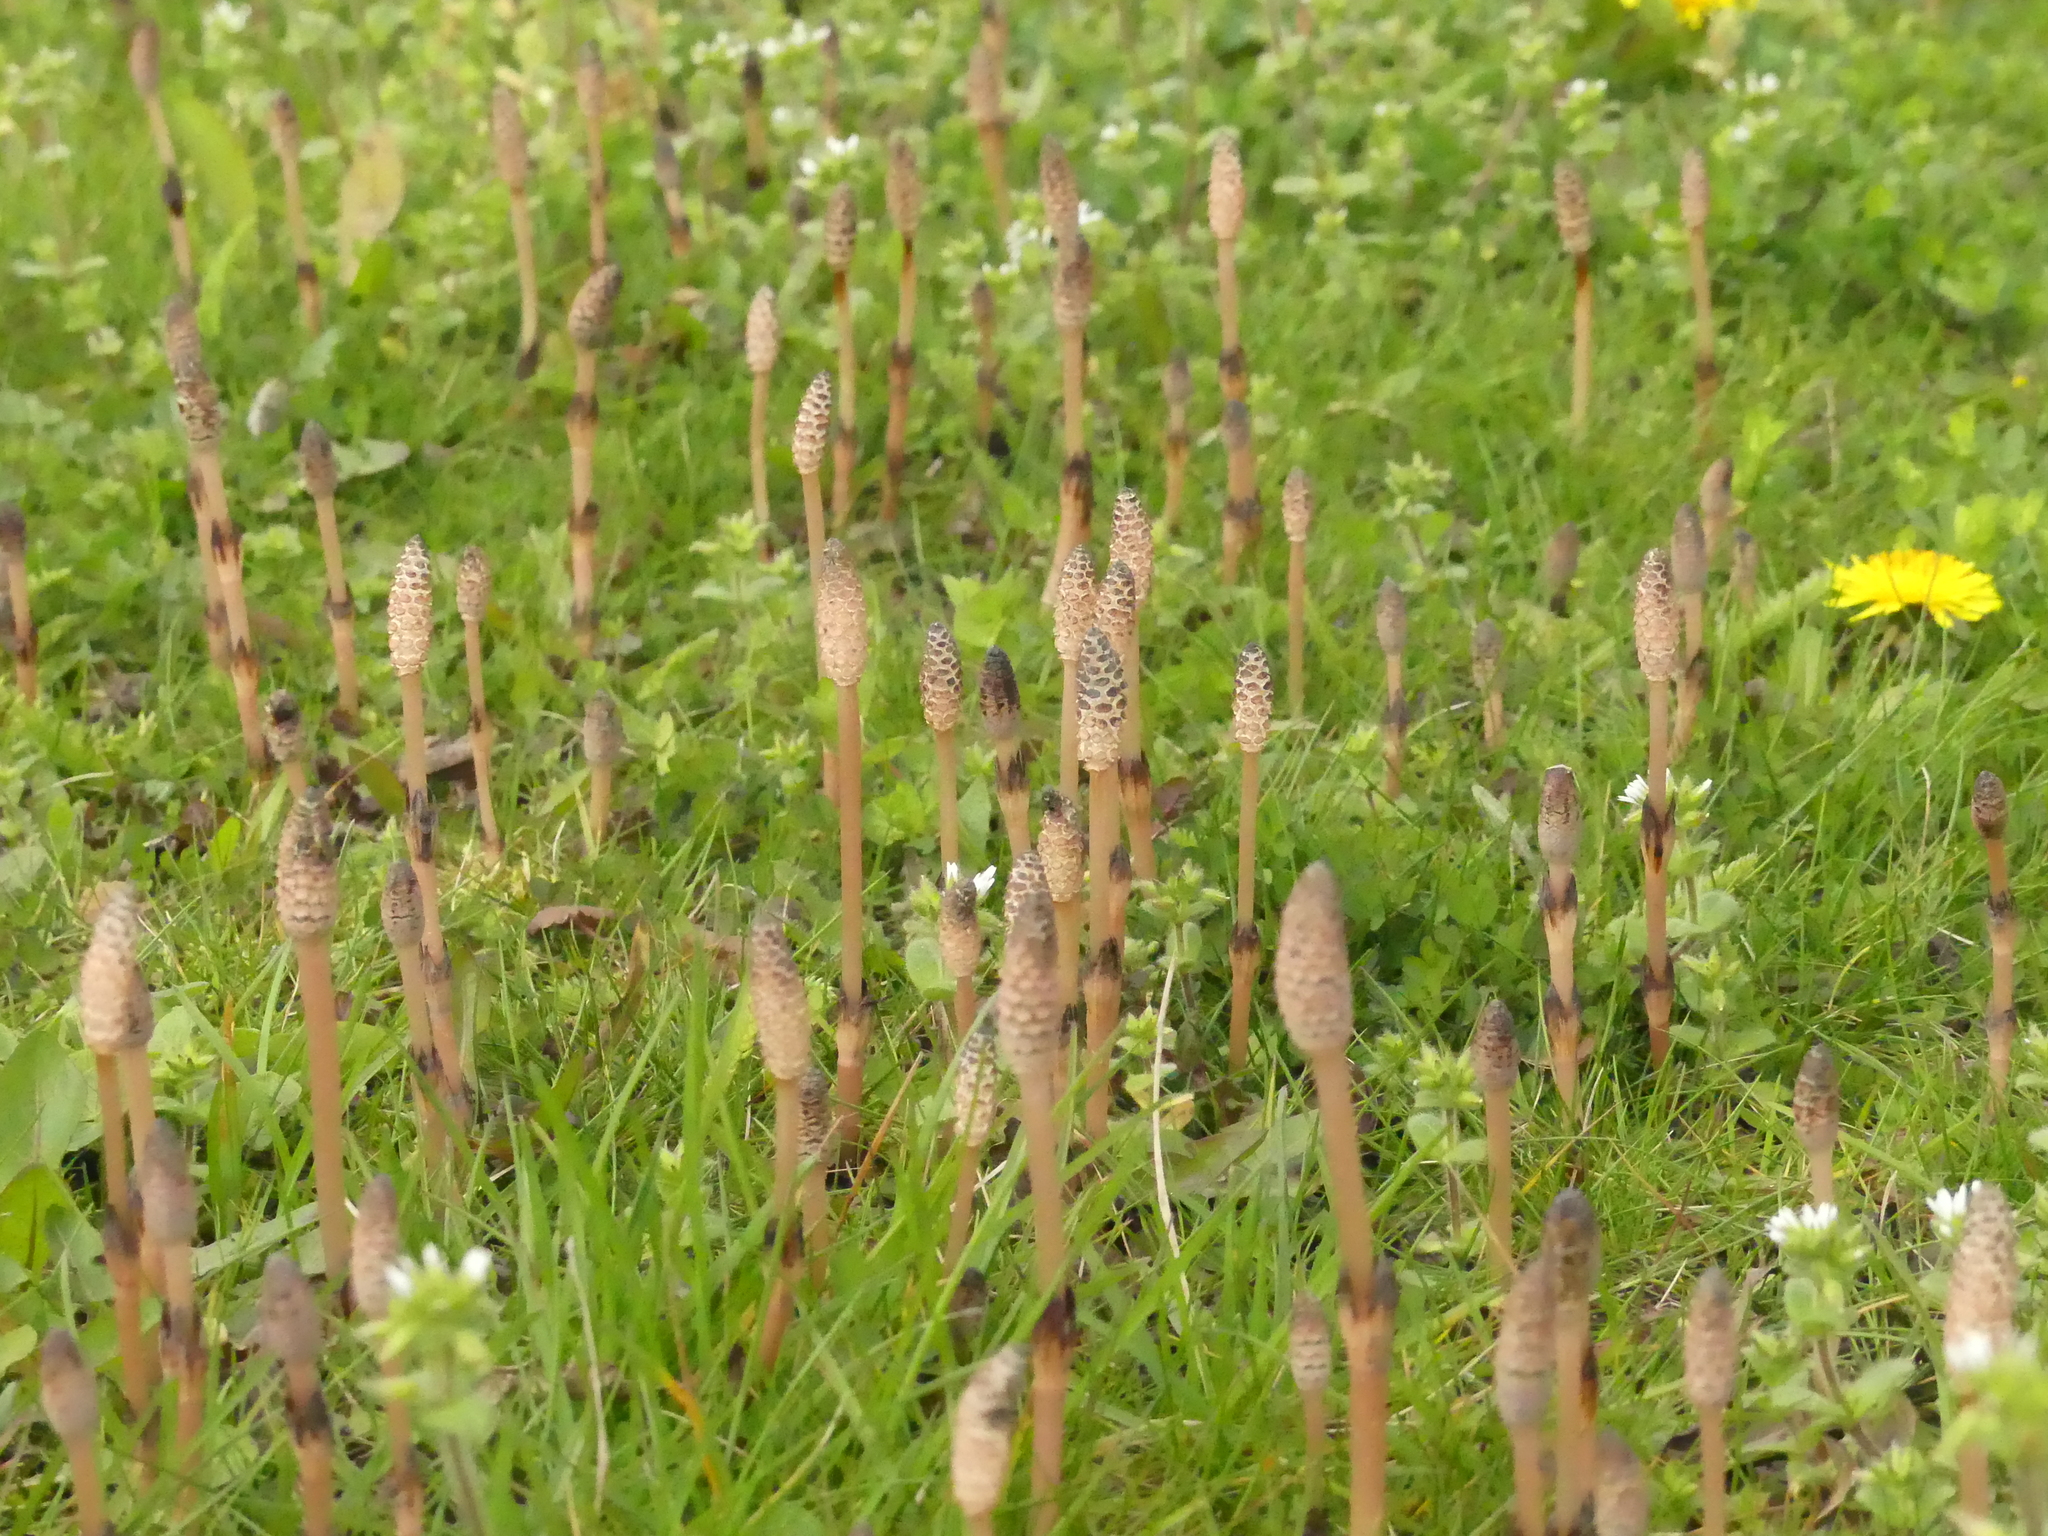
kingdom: Plantae
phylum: Tracheophyta
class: Polypodiopsida
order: Equisetales
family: Equisetaceae
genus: Equisetum
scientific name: Equisetum arvense
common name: Field horsetail
